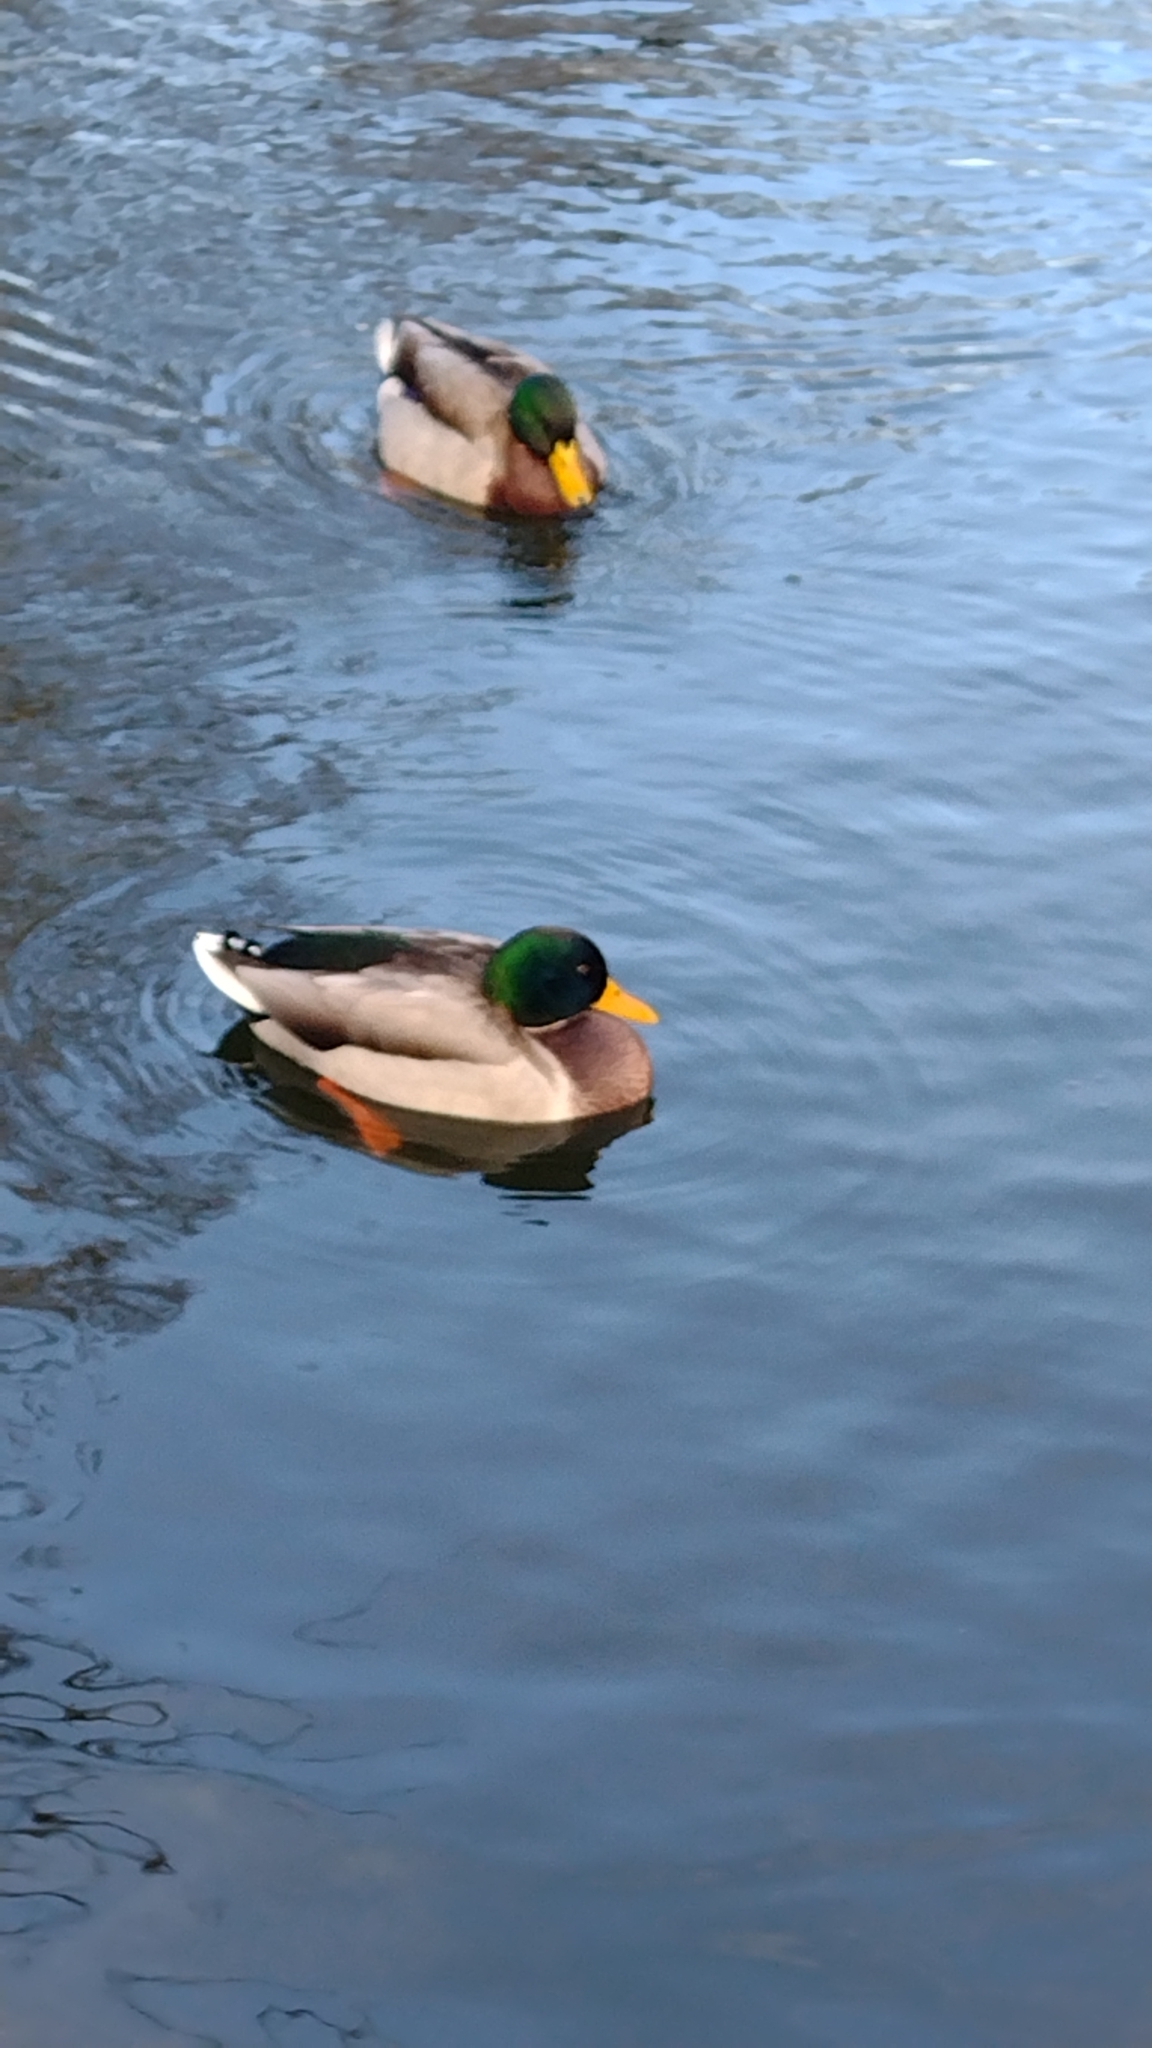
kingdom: Animalia
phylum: Chordata
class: Aves
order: Anseriformes
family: Anatidae
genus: Anas
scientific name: Anas platyrhynchos
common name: Mallard
